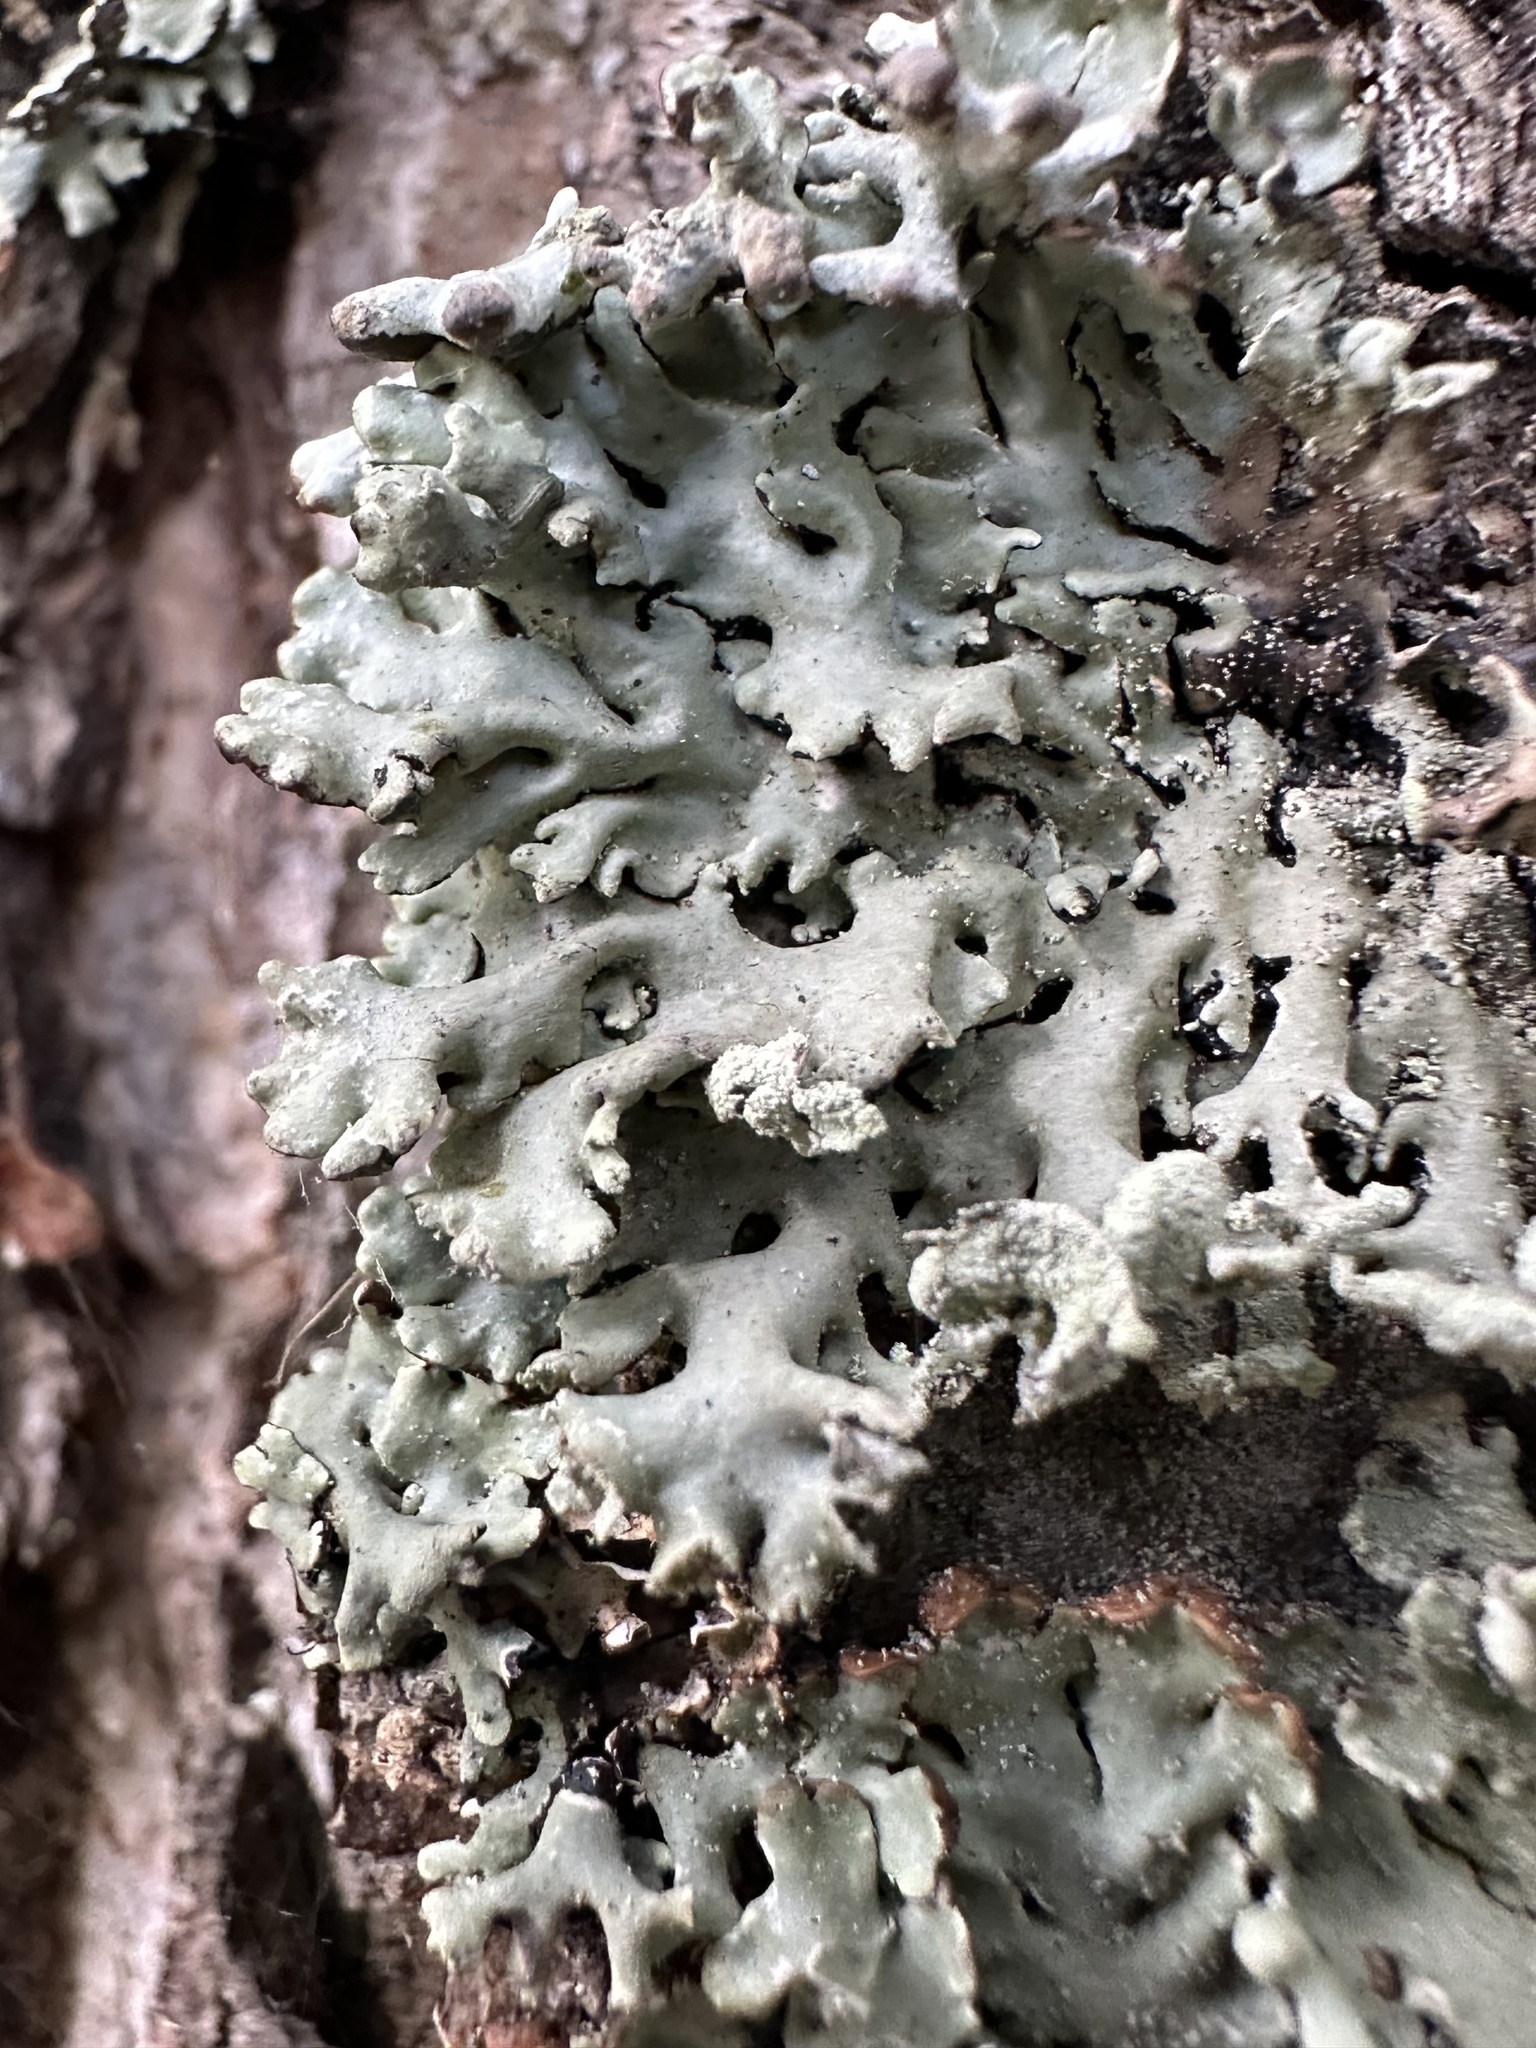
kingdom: Fungi
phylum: Ascomycota
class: Lecanoromycetes
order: Lecanorales
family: Parmeliaceae
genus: Hypogymnia
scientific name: Hypogymnia physodes
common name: Dark crottle
